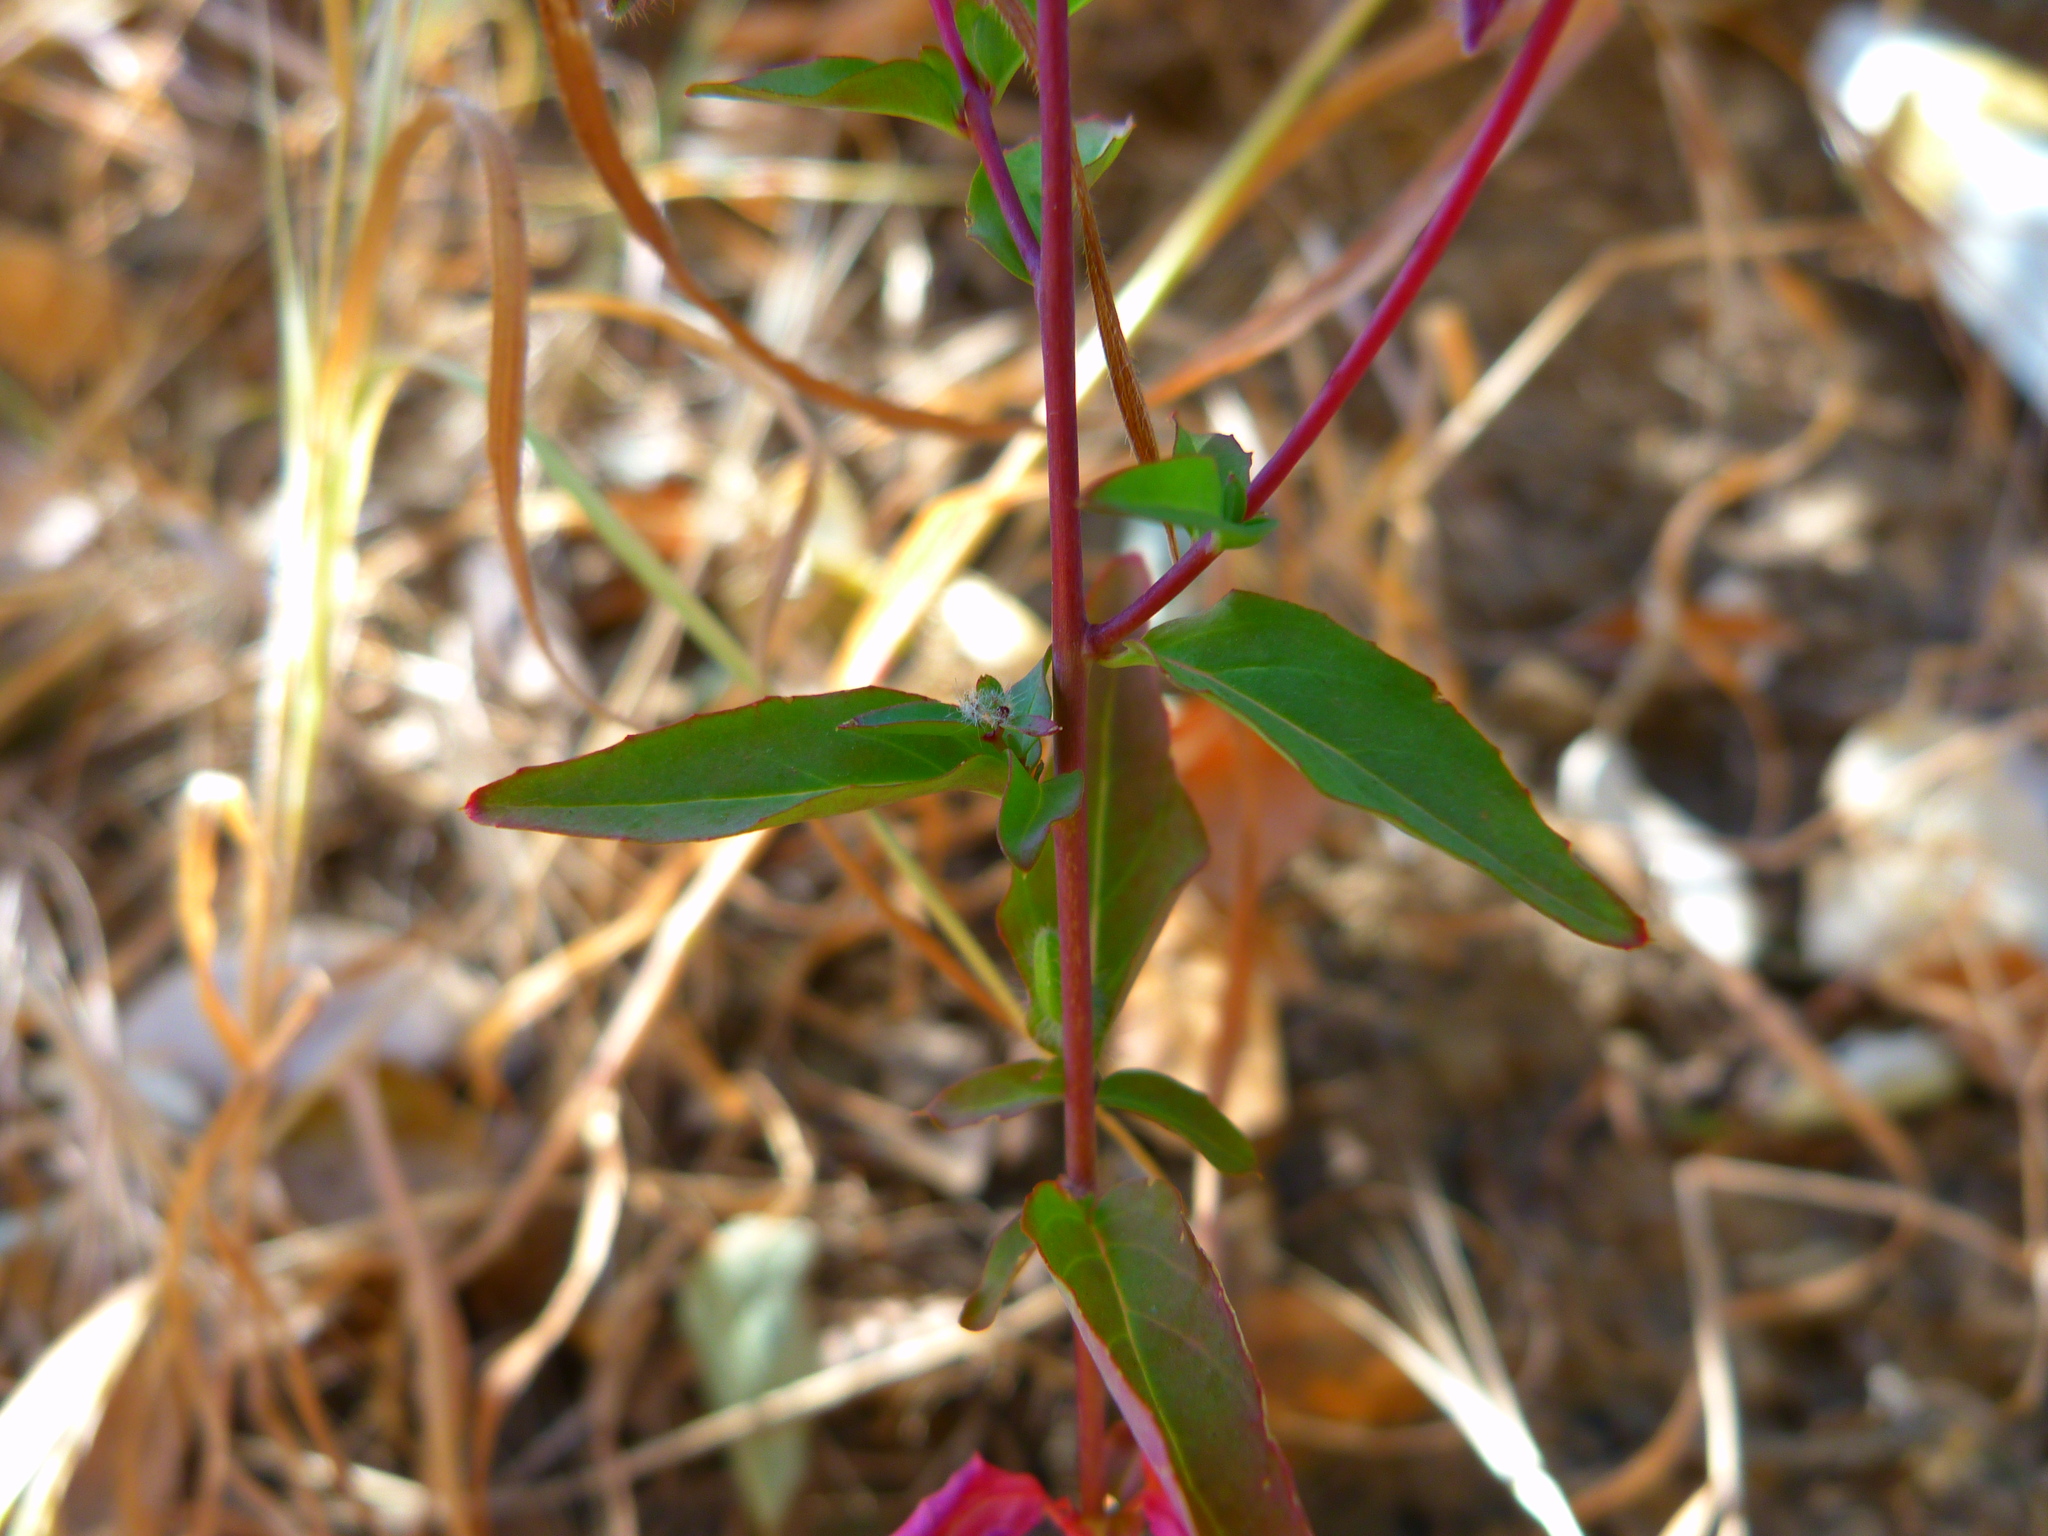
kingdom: Plantae
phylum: Tracheophyta
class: Magnoliopsida
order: Myrtales
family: Onagraceae
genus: Clarkia
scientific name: Clarkia unguiculata
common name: Clarkia
